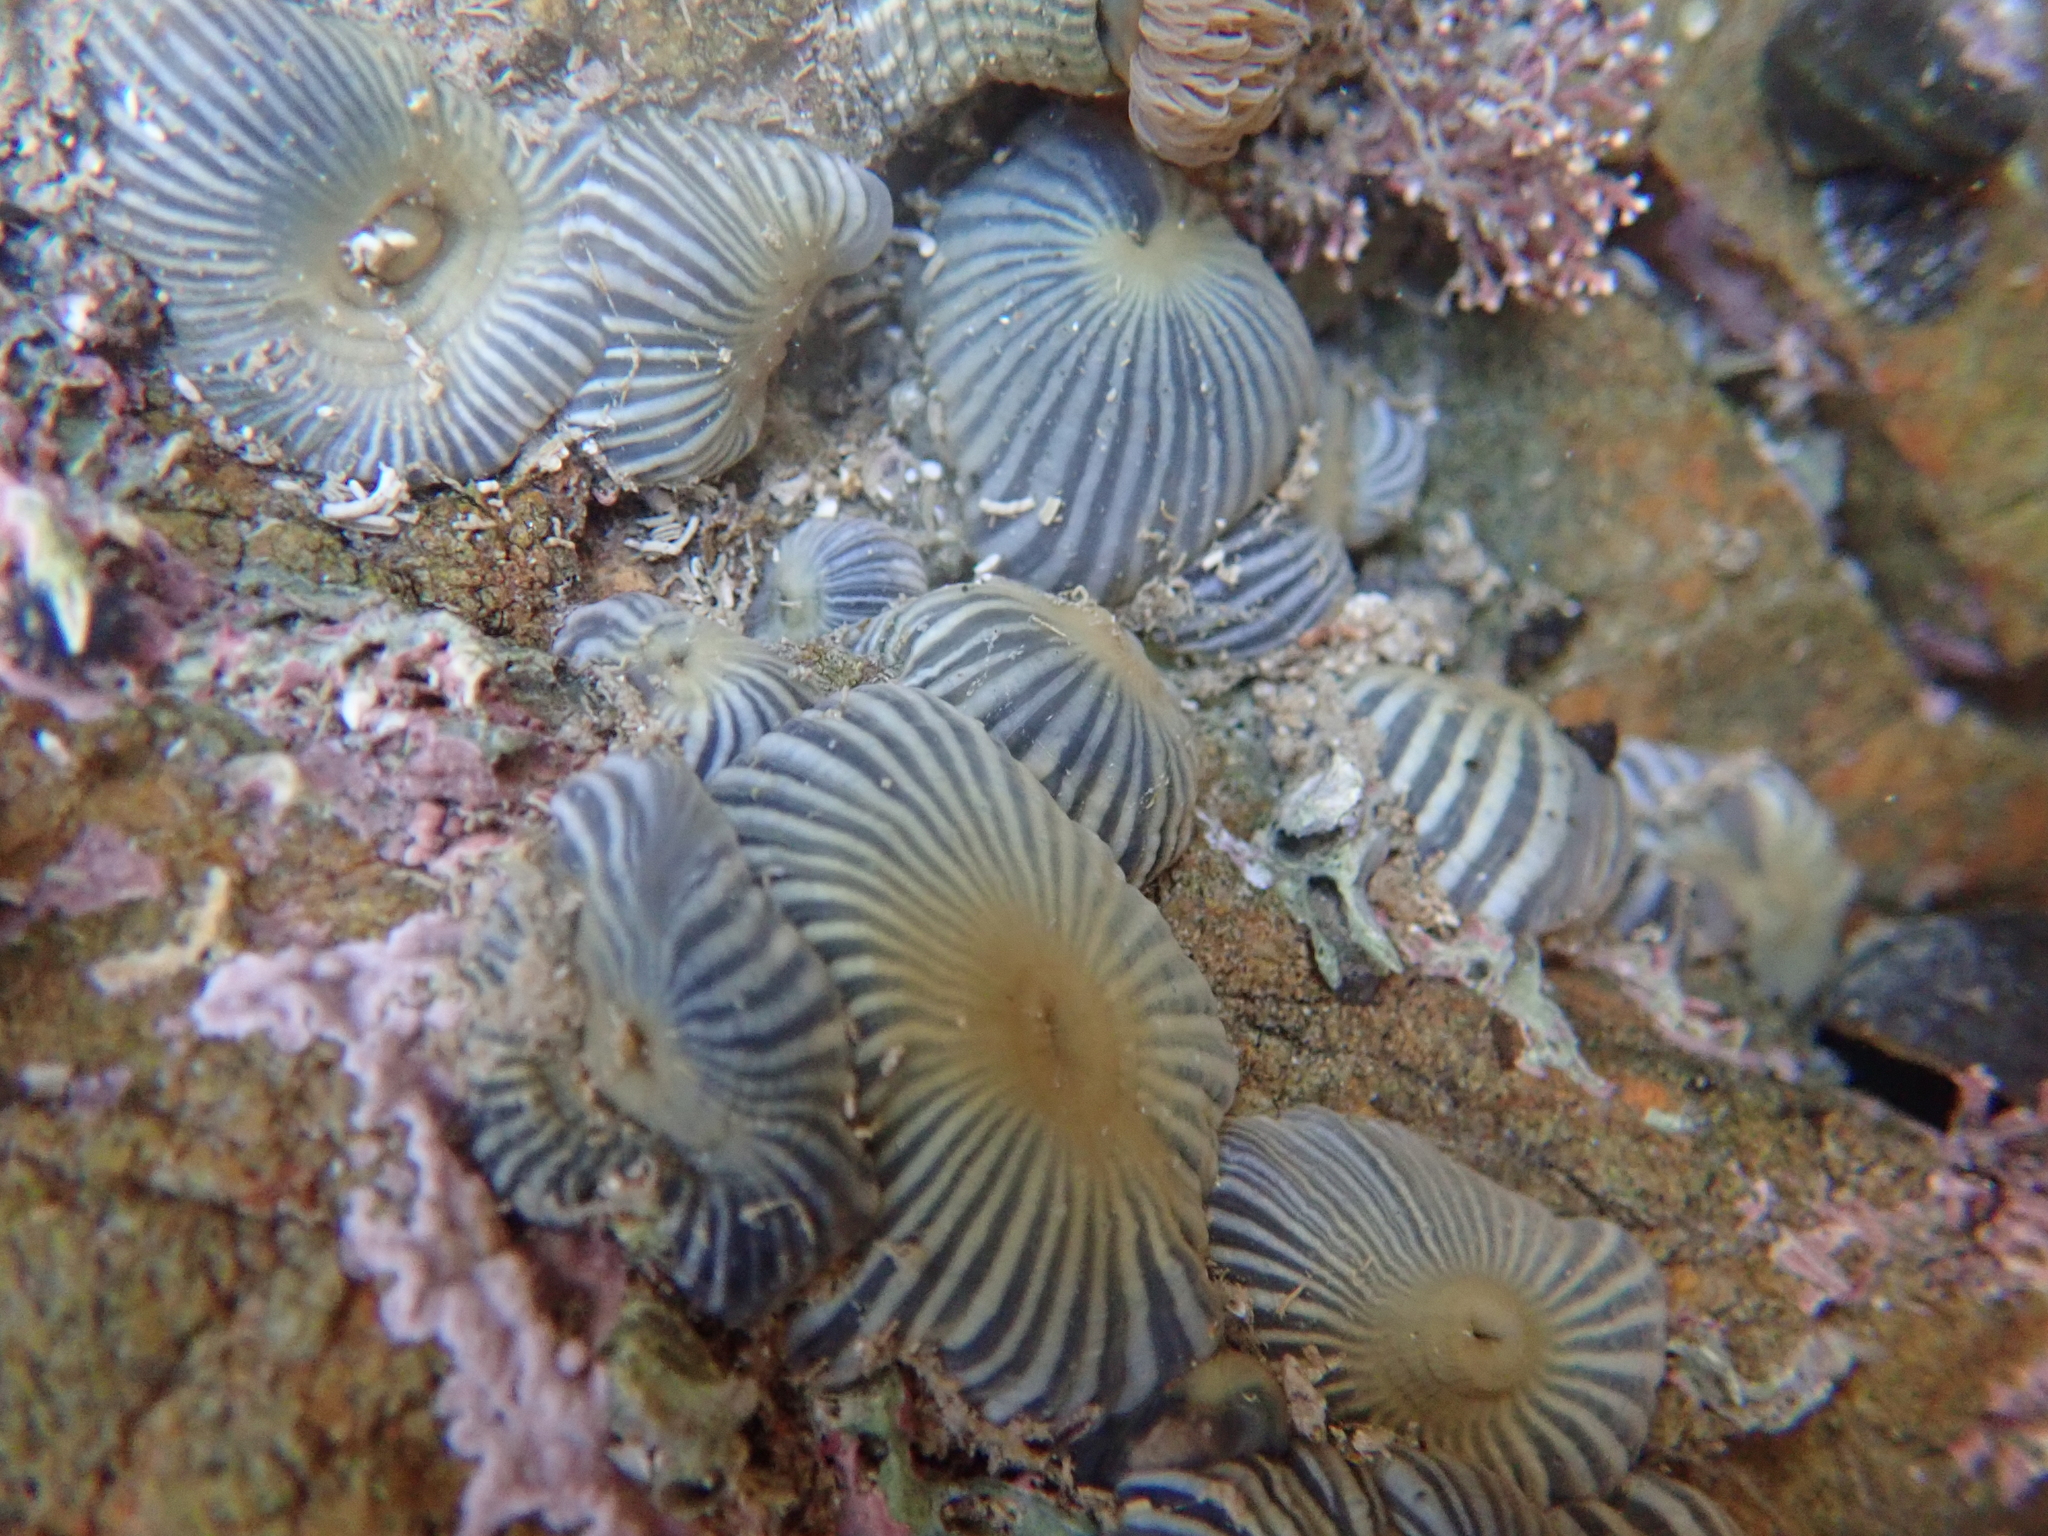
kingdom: Animalia
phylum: Cnidaria
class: Anthozoa
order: Actiniaria
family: Diadumenidae
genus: Diadumene
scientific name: Diadumene neozelanica
